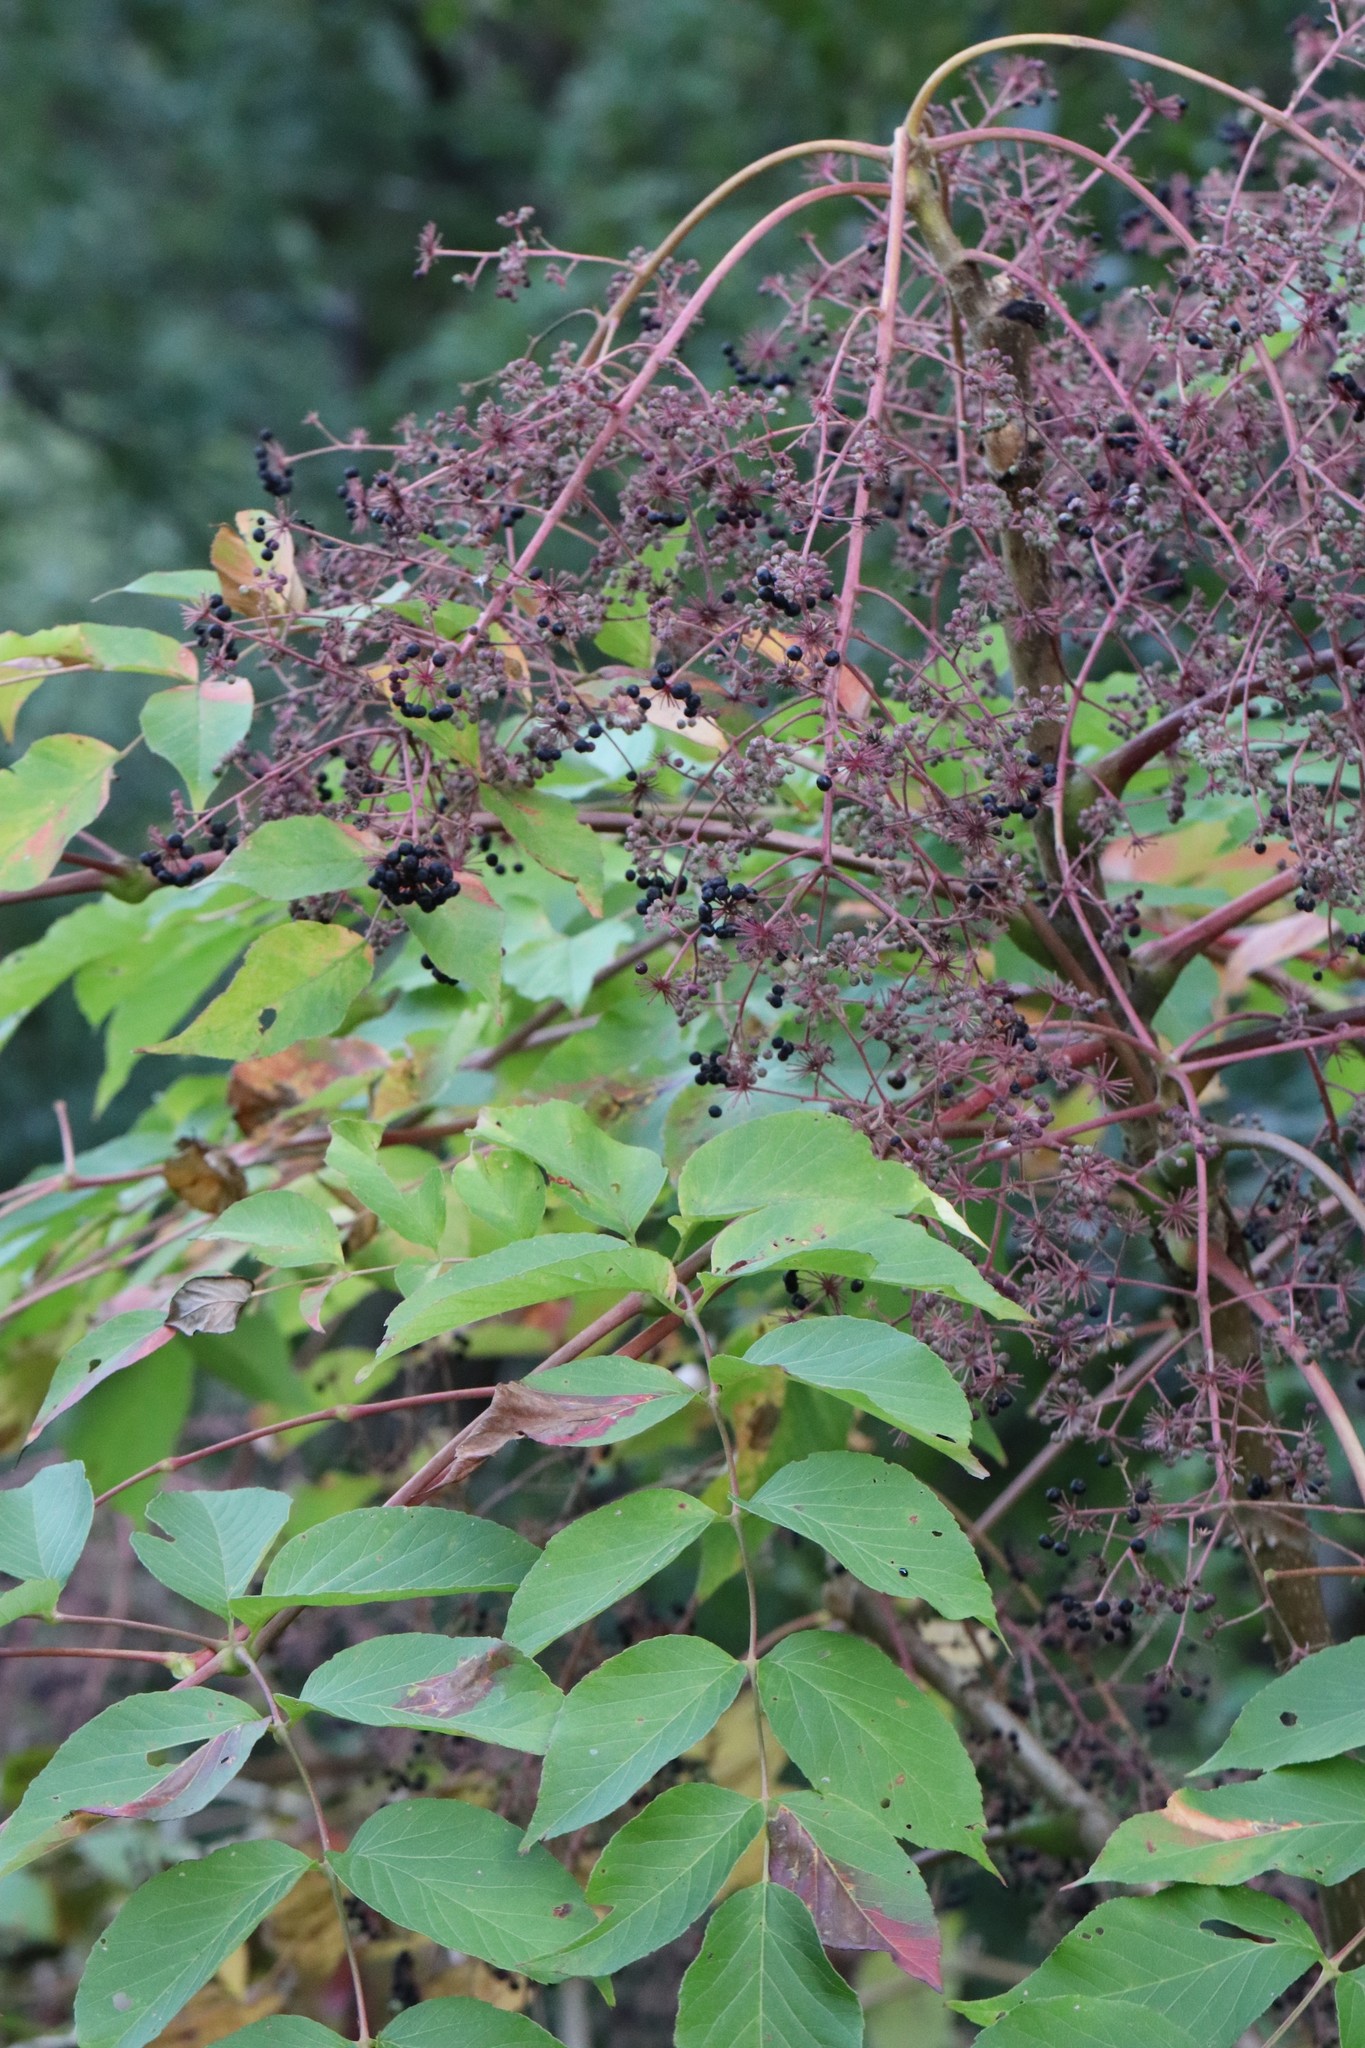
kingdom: Plantae
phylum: Tracheophyta
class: Magnoliopsida
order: Apiales
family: Araliaceae
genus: Aralia
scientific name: Aralia elata
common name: Japanese angelica-tree
